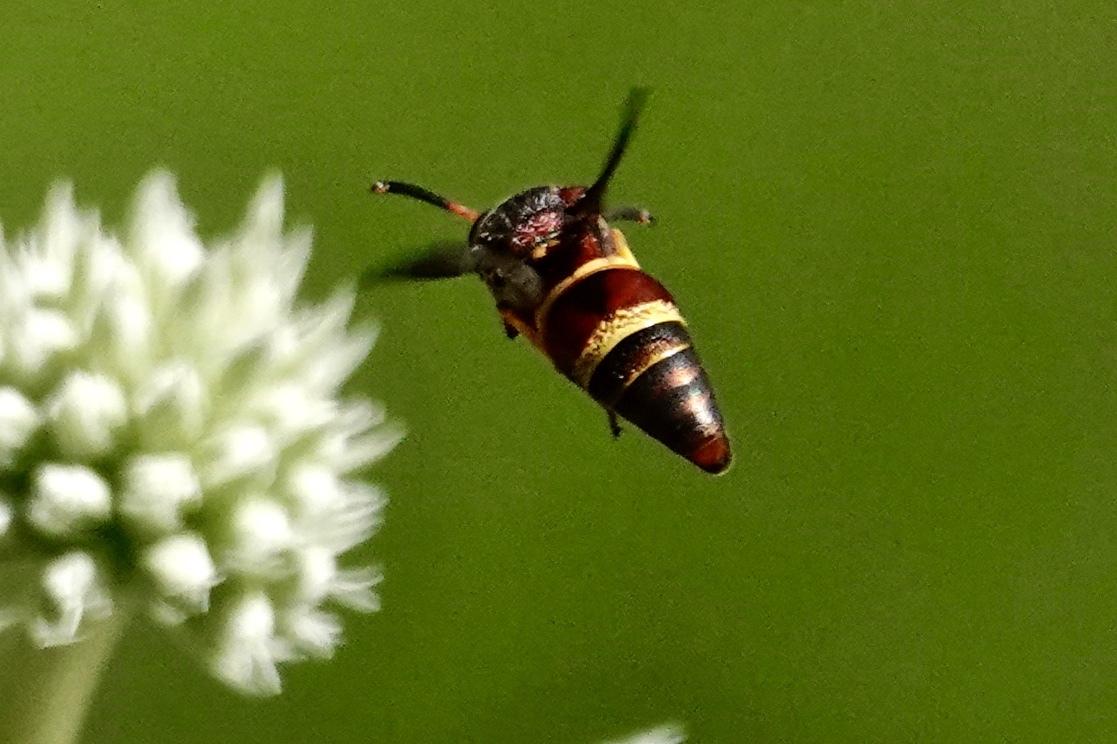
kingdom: Animalia
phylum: Arthropoda
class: Insecta
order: Hymenoptera
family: Eumenidae
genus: Euodynerus
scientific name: Euodynerus crypticus
